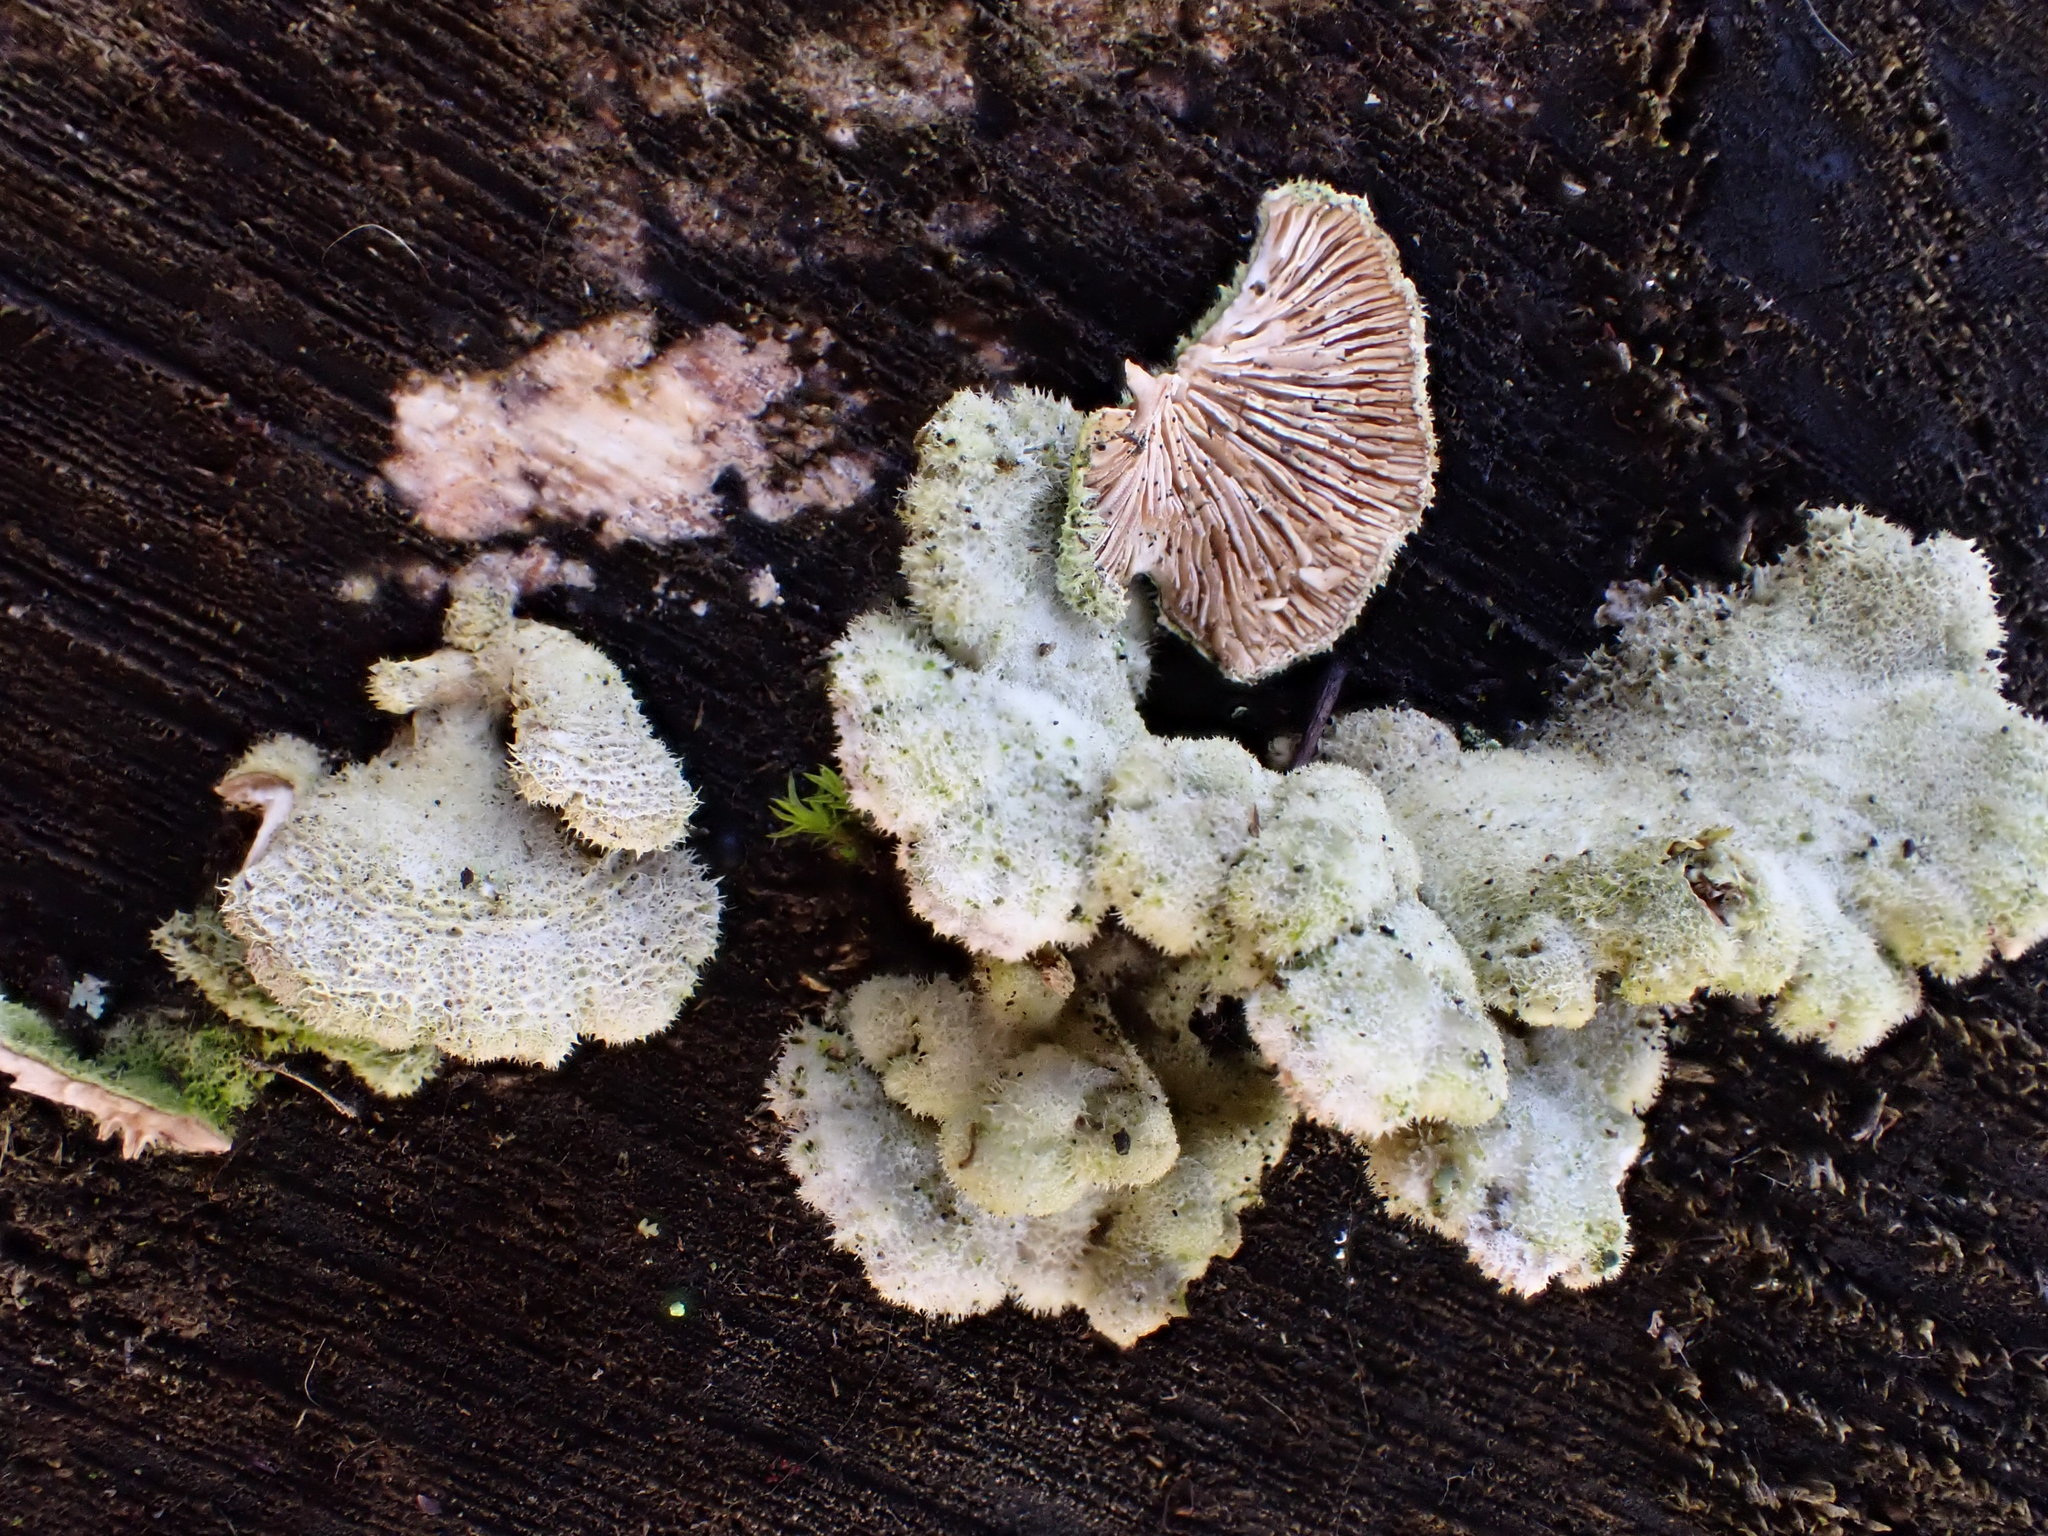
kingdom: Fungi
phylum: Basidiomycota
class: Agaricomycetes
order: Agaricales
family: Schizophyllaceae
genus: Schizophyllum
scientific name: Schizophyllum commune
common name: Common porecrust
